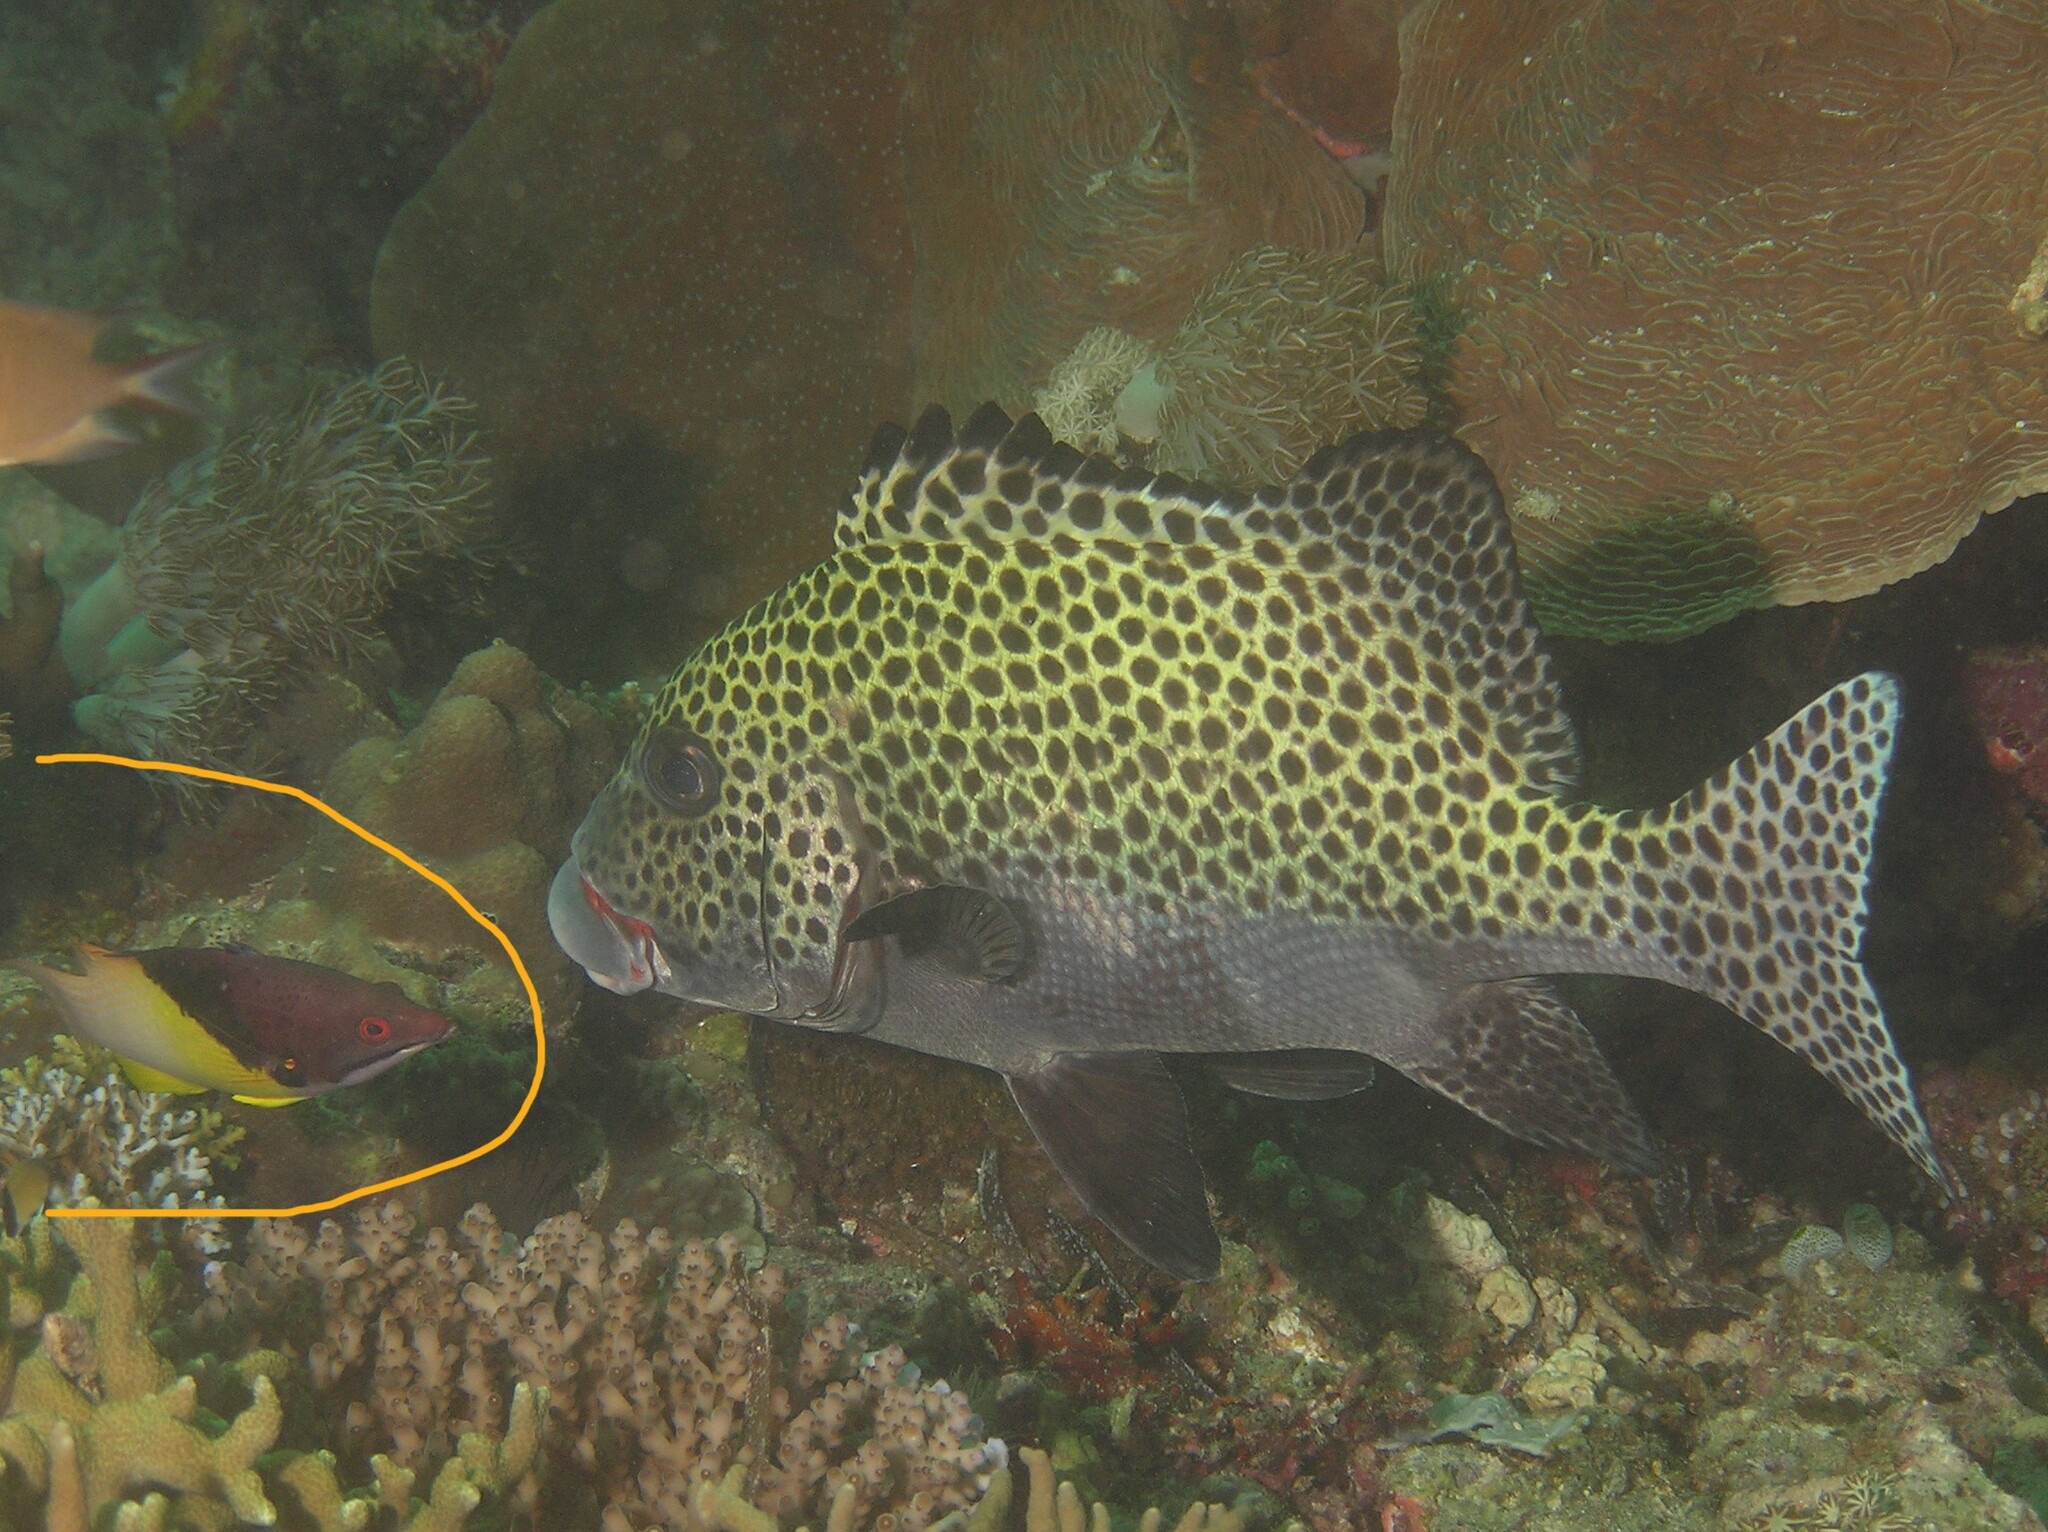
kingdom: Animalia
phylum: Chordata
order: Perciformes
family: Labridae
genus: Bodianus
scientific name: Bodianus mesothorax
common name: Coral hogfish
